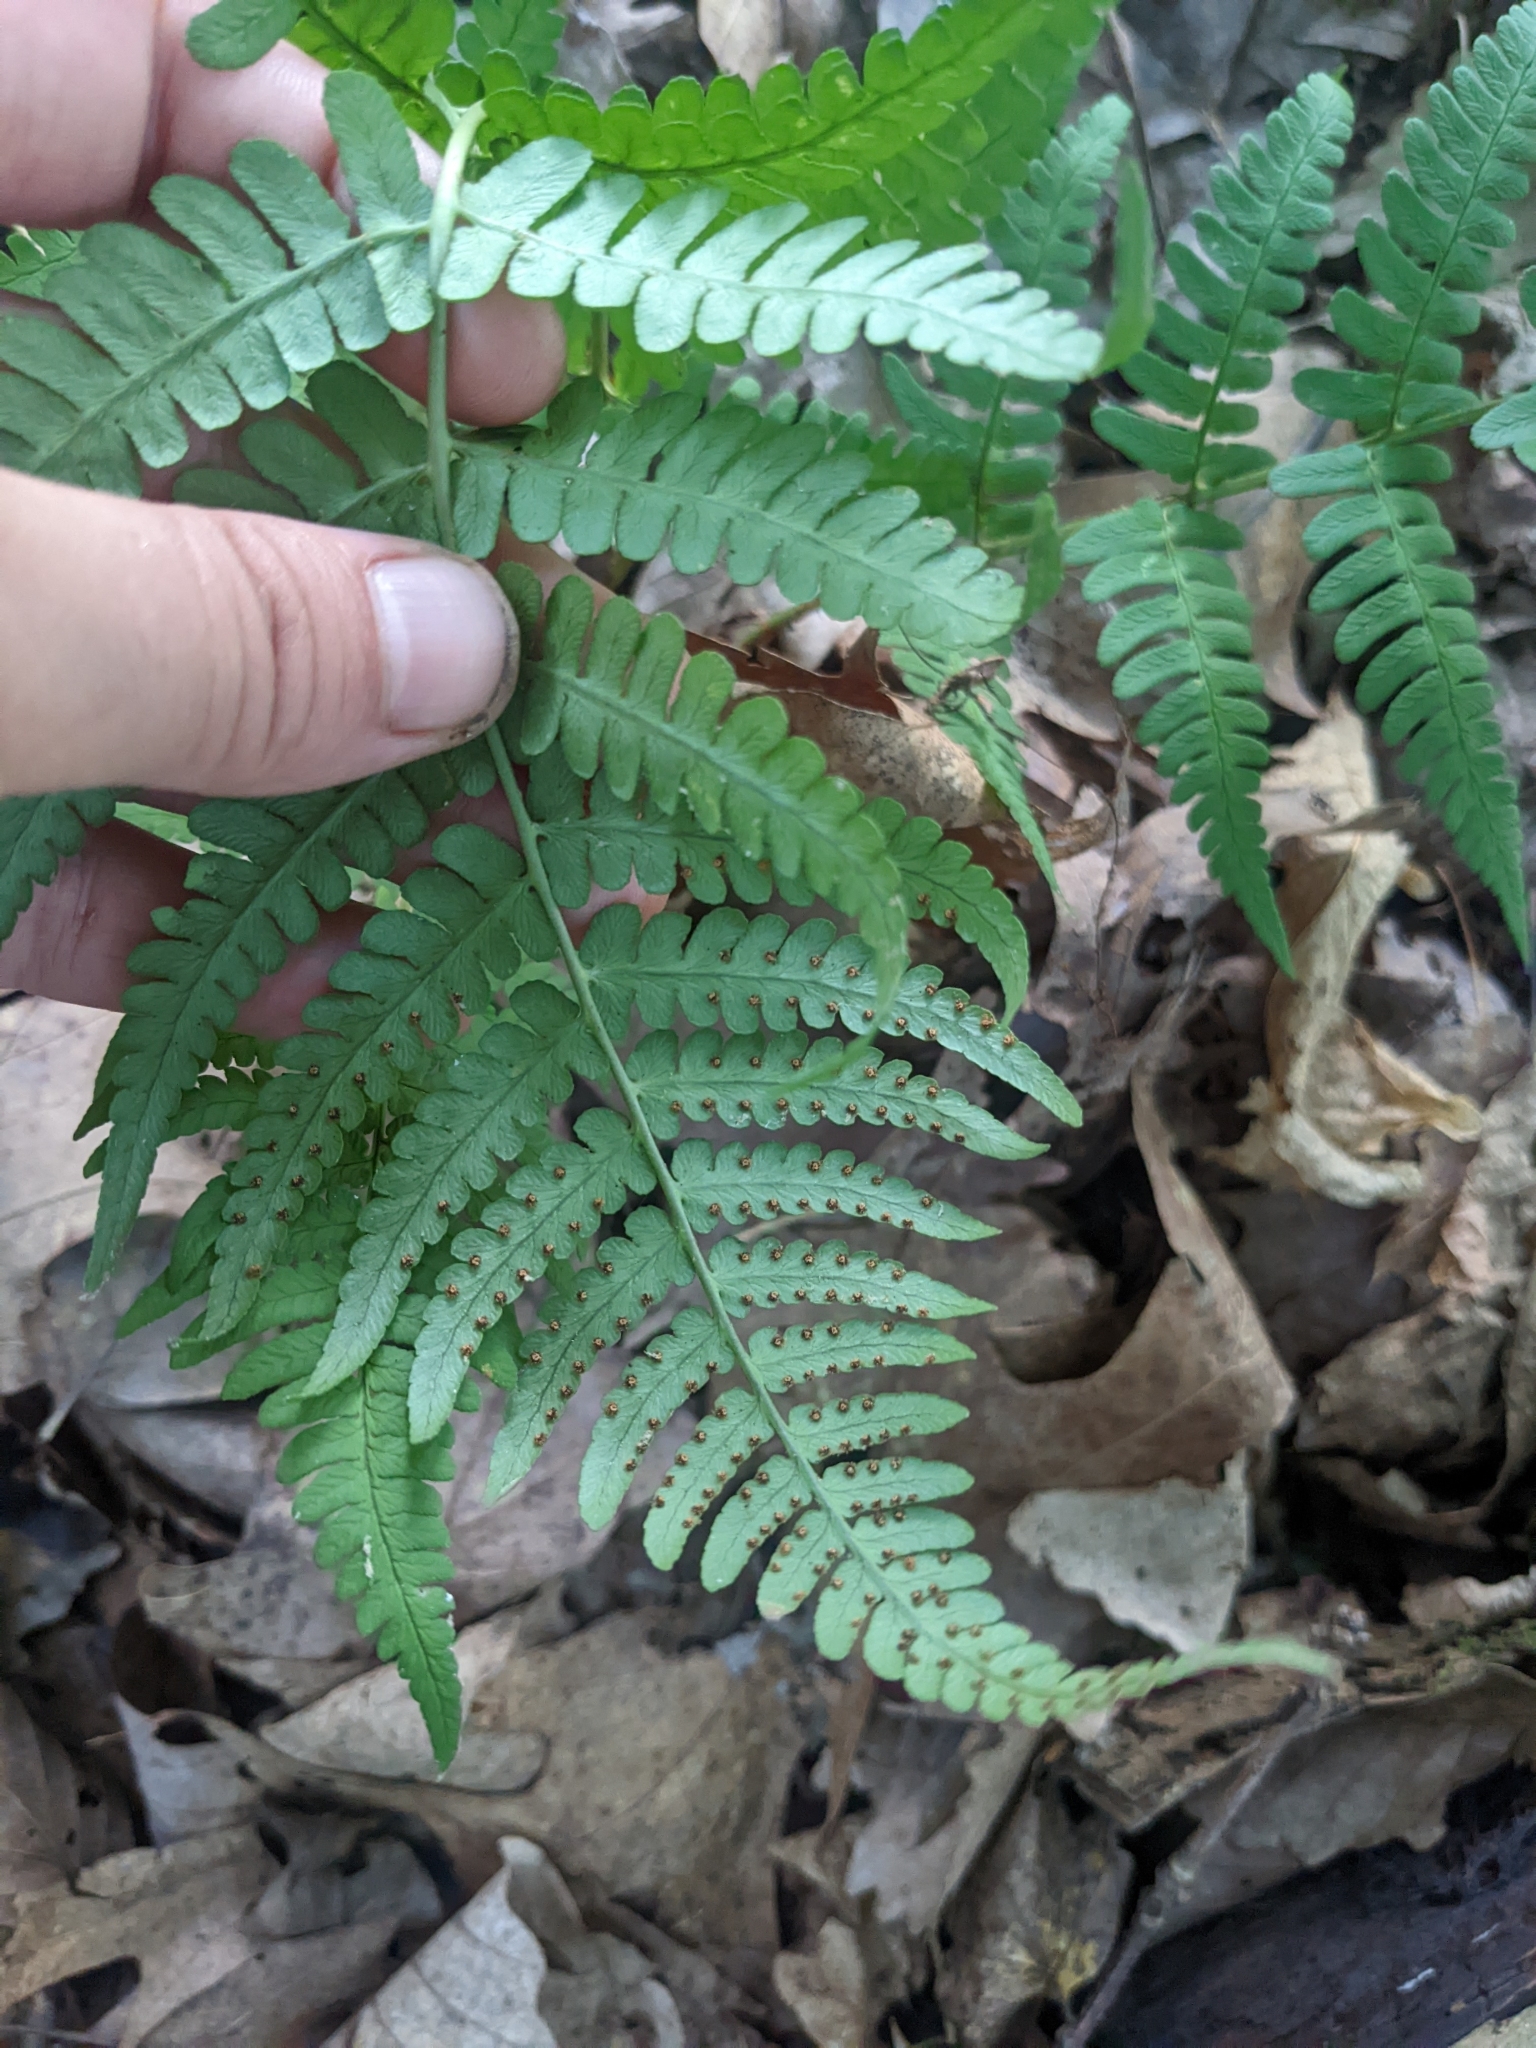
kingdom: Plantae
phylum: Tracheophyta
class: Polypodiopsida
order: Polypodiales
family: Dryopteridaceae
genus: Dryopteris
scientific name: Dryopteris marginalis
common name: Marginal wood fern
